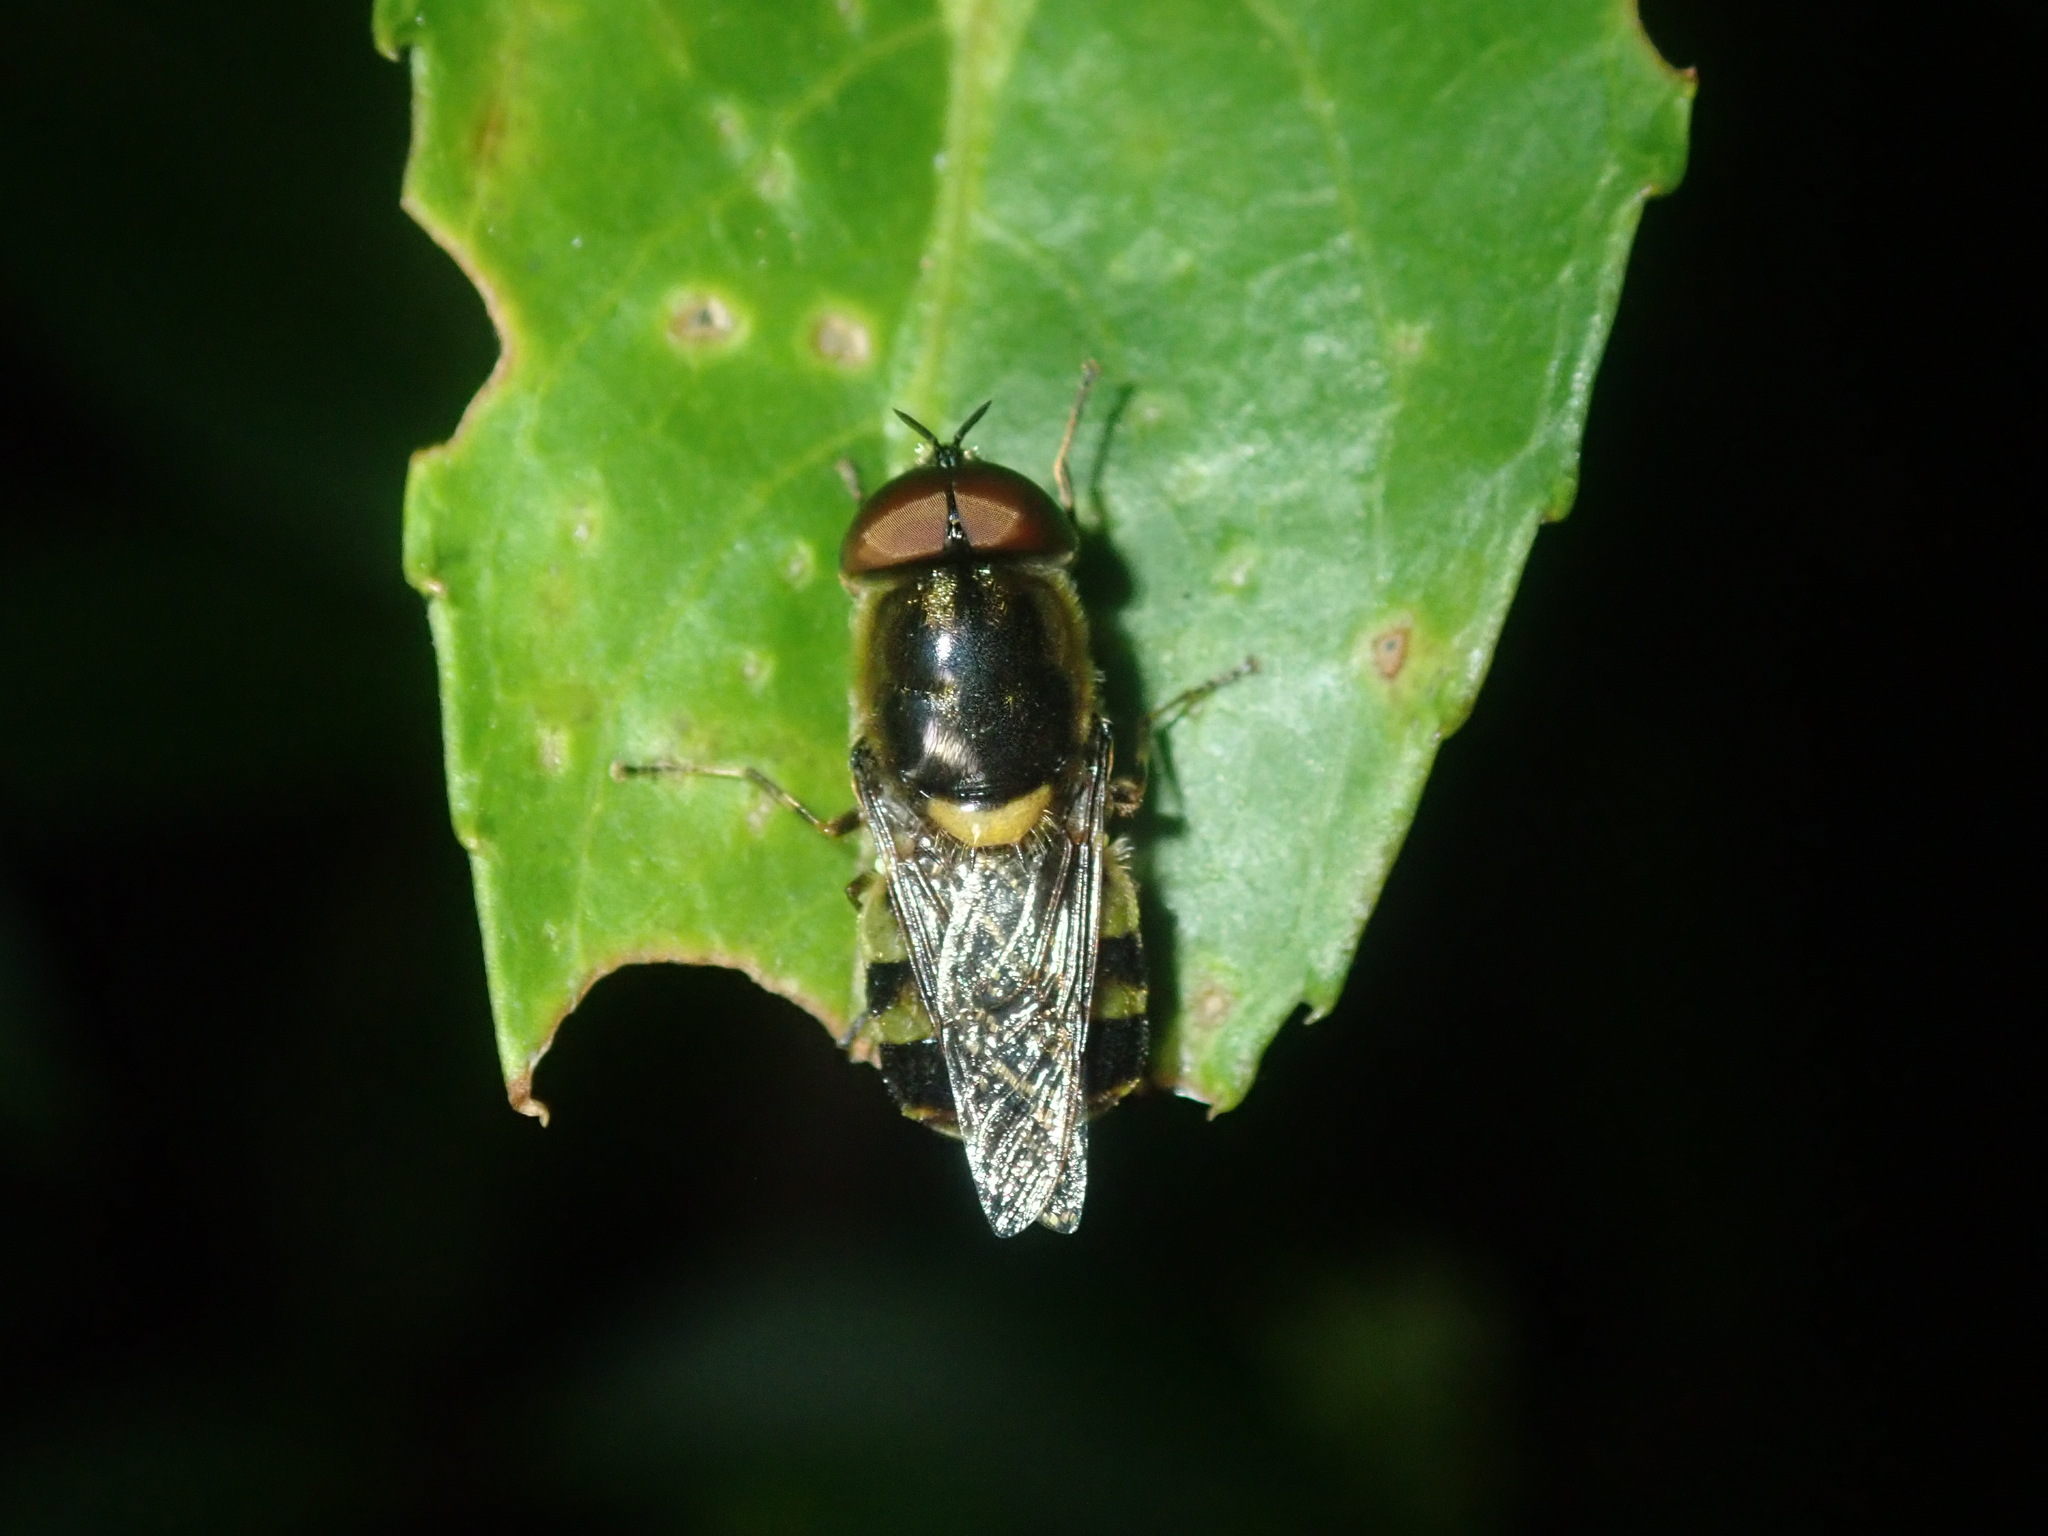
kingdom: Animalia
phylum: Arthropoda
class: Insecta
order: Diptera
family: Stratiomyidae
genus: Odontomyia
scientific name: Odontomyia hunteri
